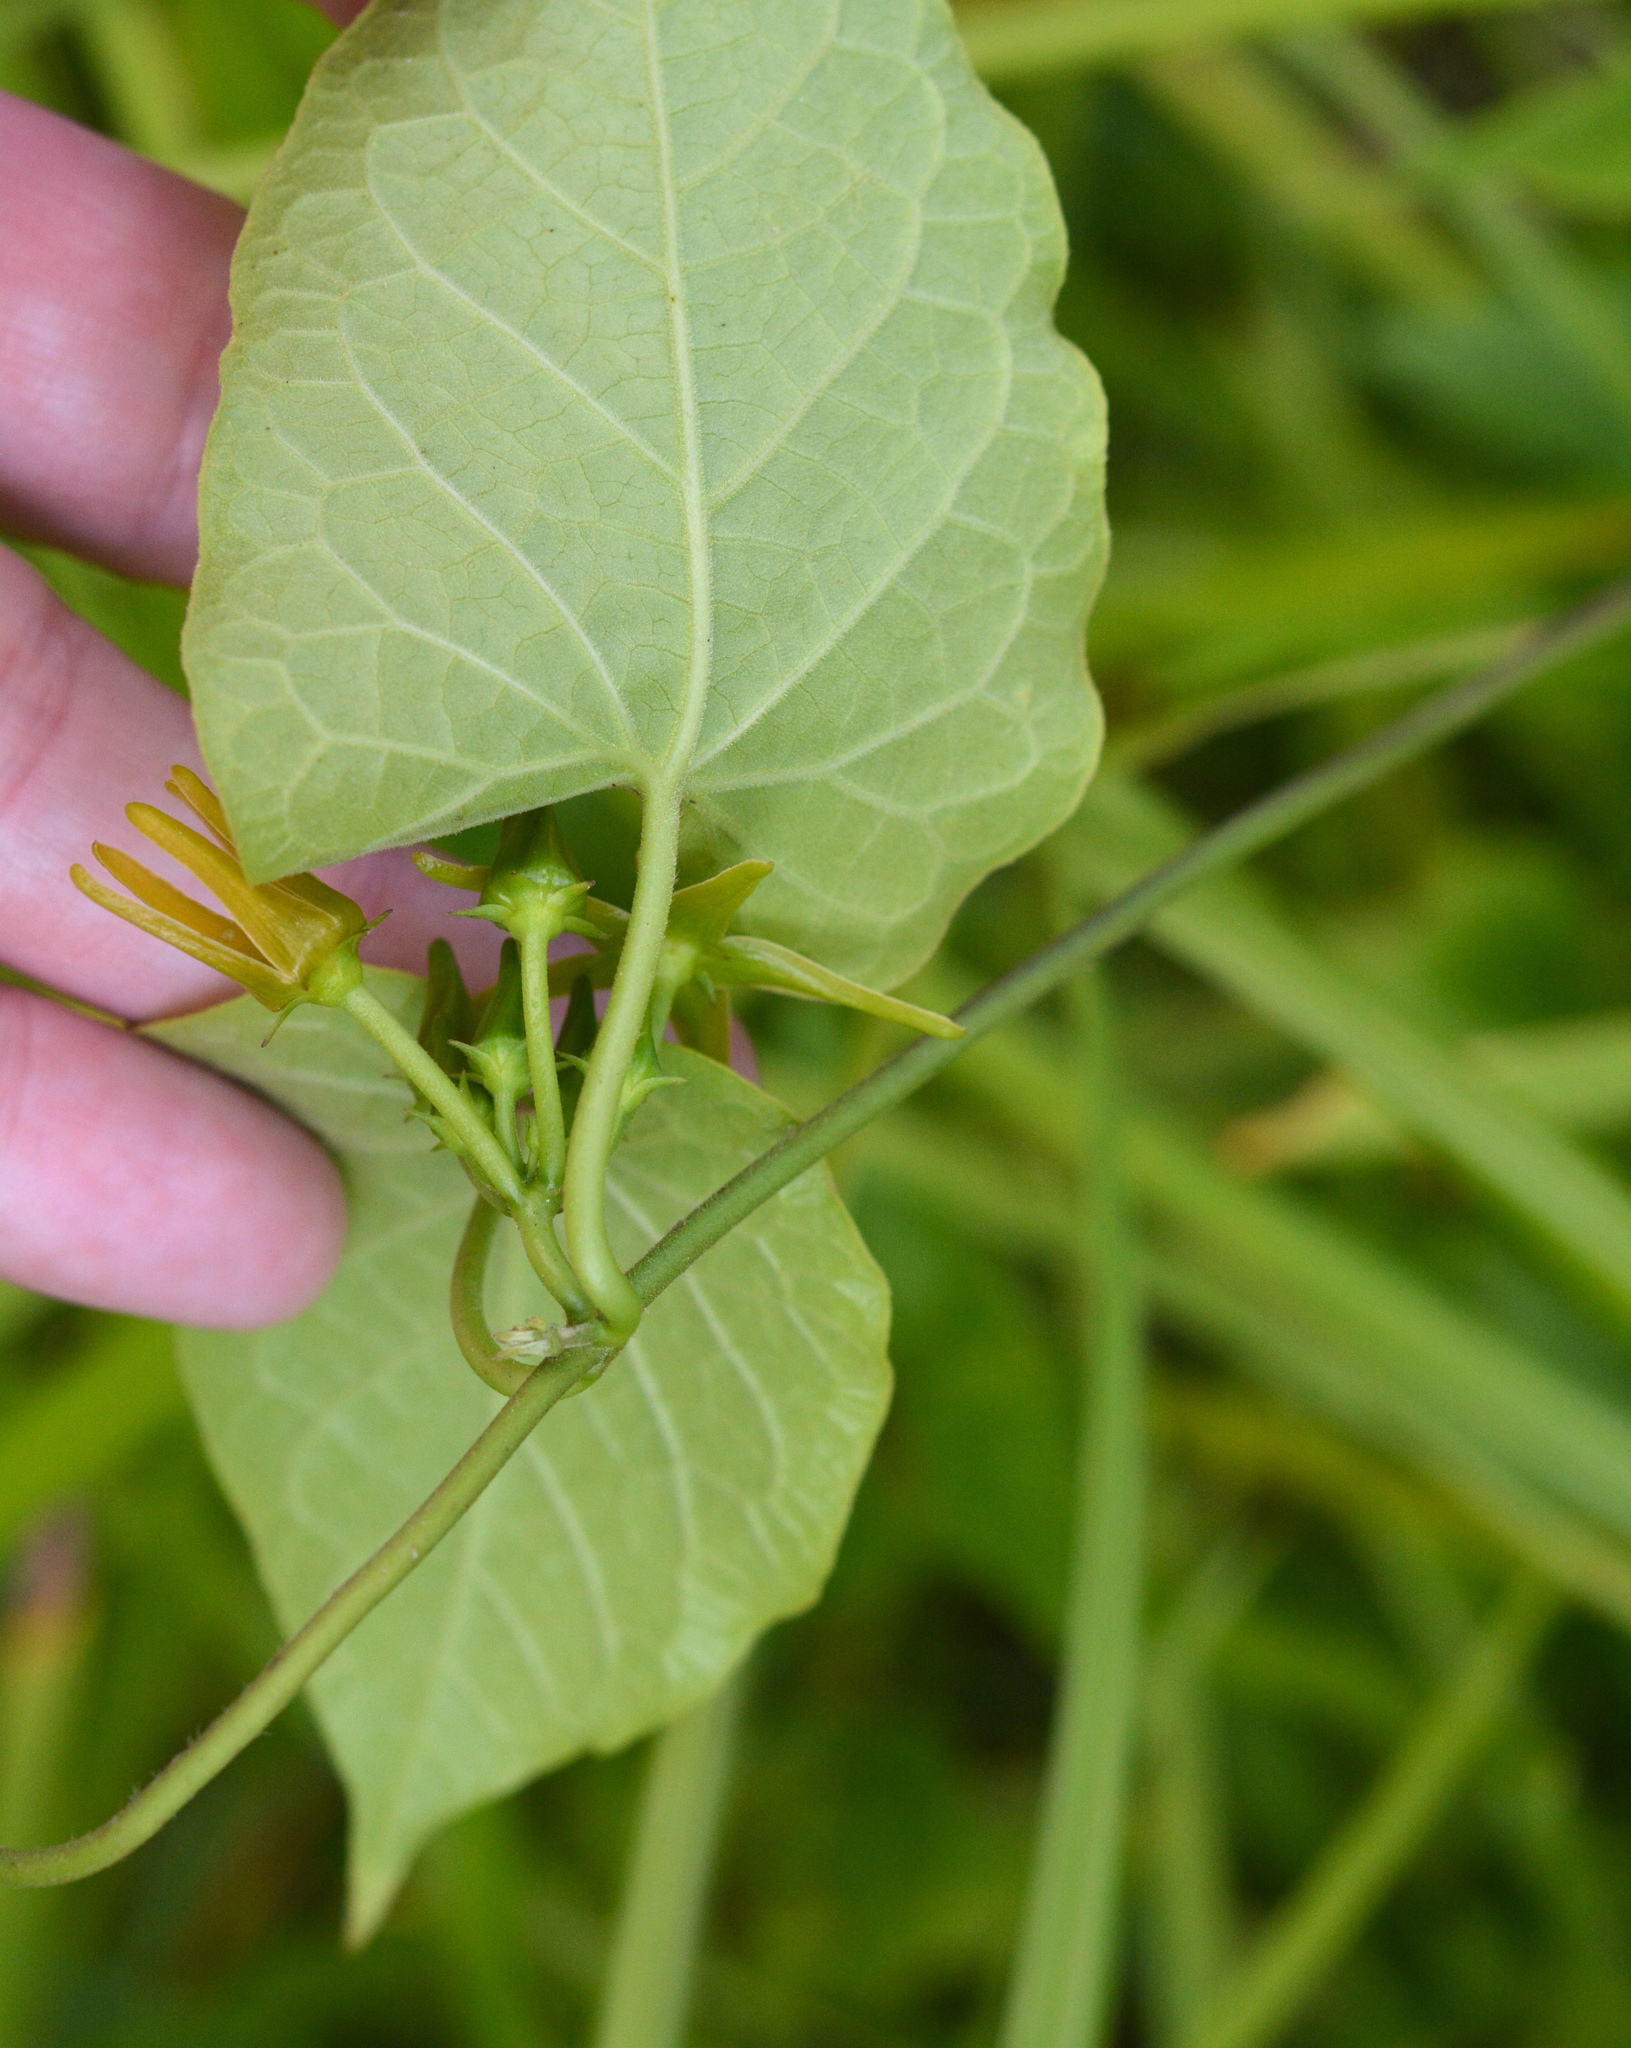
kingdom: Plantae
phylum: Tracheophyta
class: Magnoliopsida
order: Gentianales
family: Apocynaceae
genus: Gonolobus
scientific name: Gonolobus suberosus
